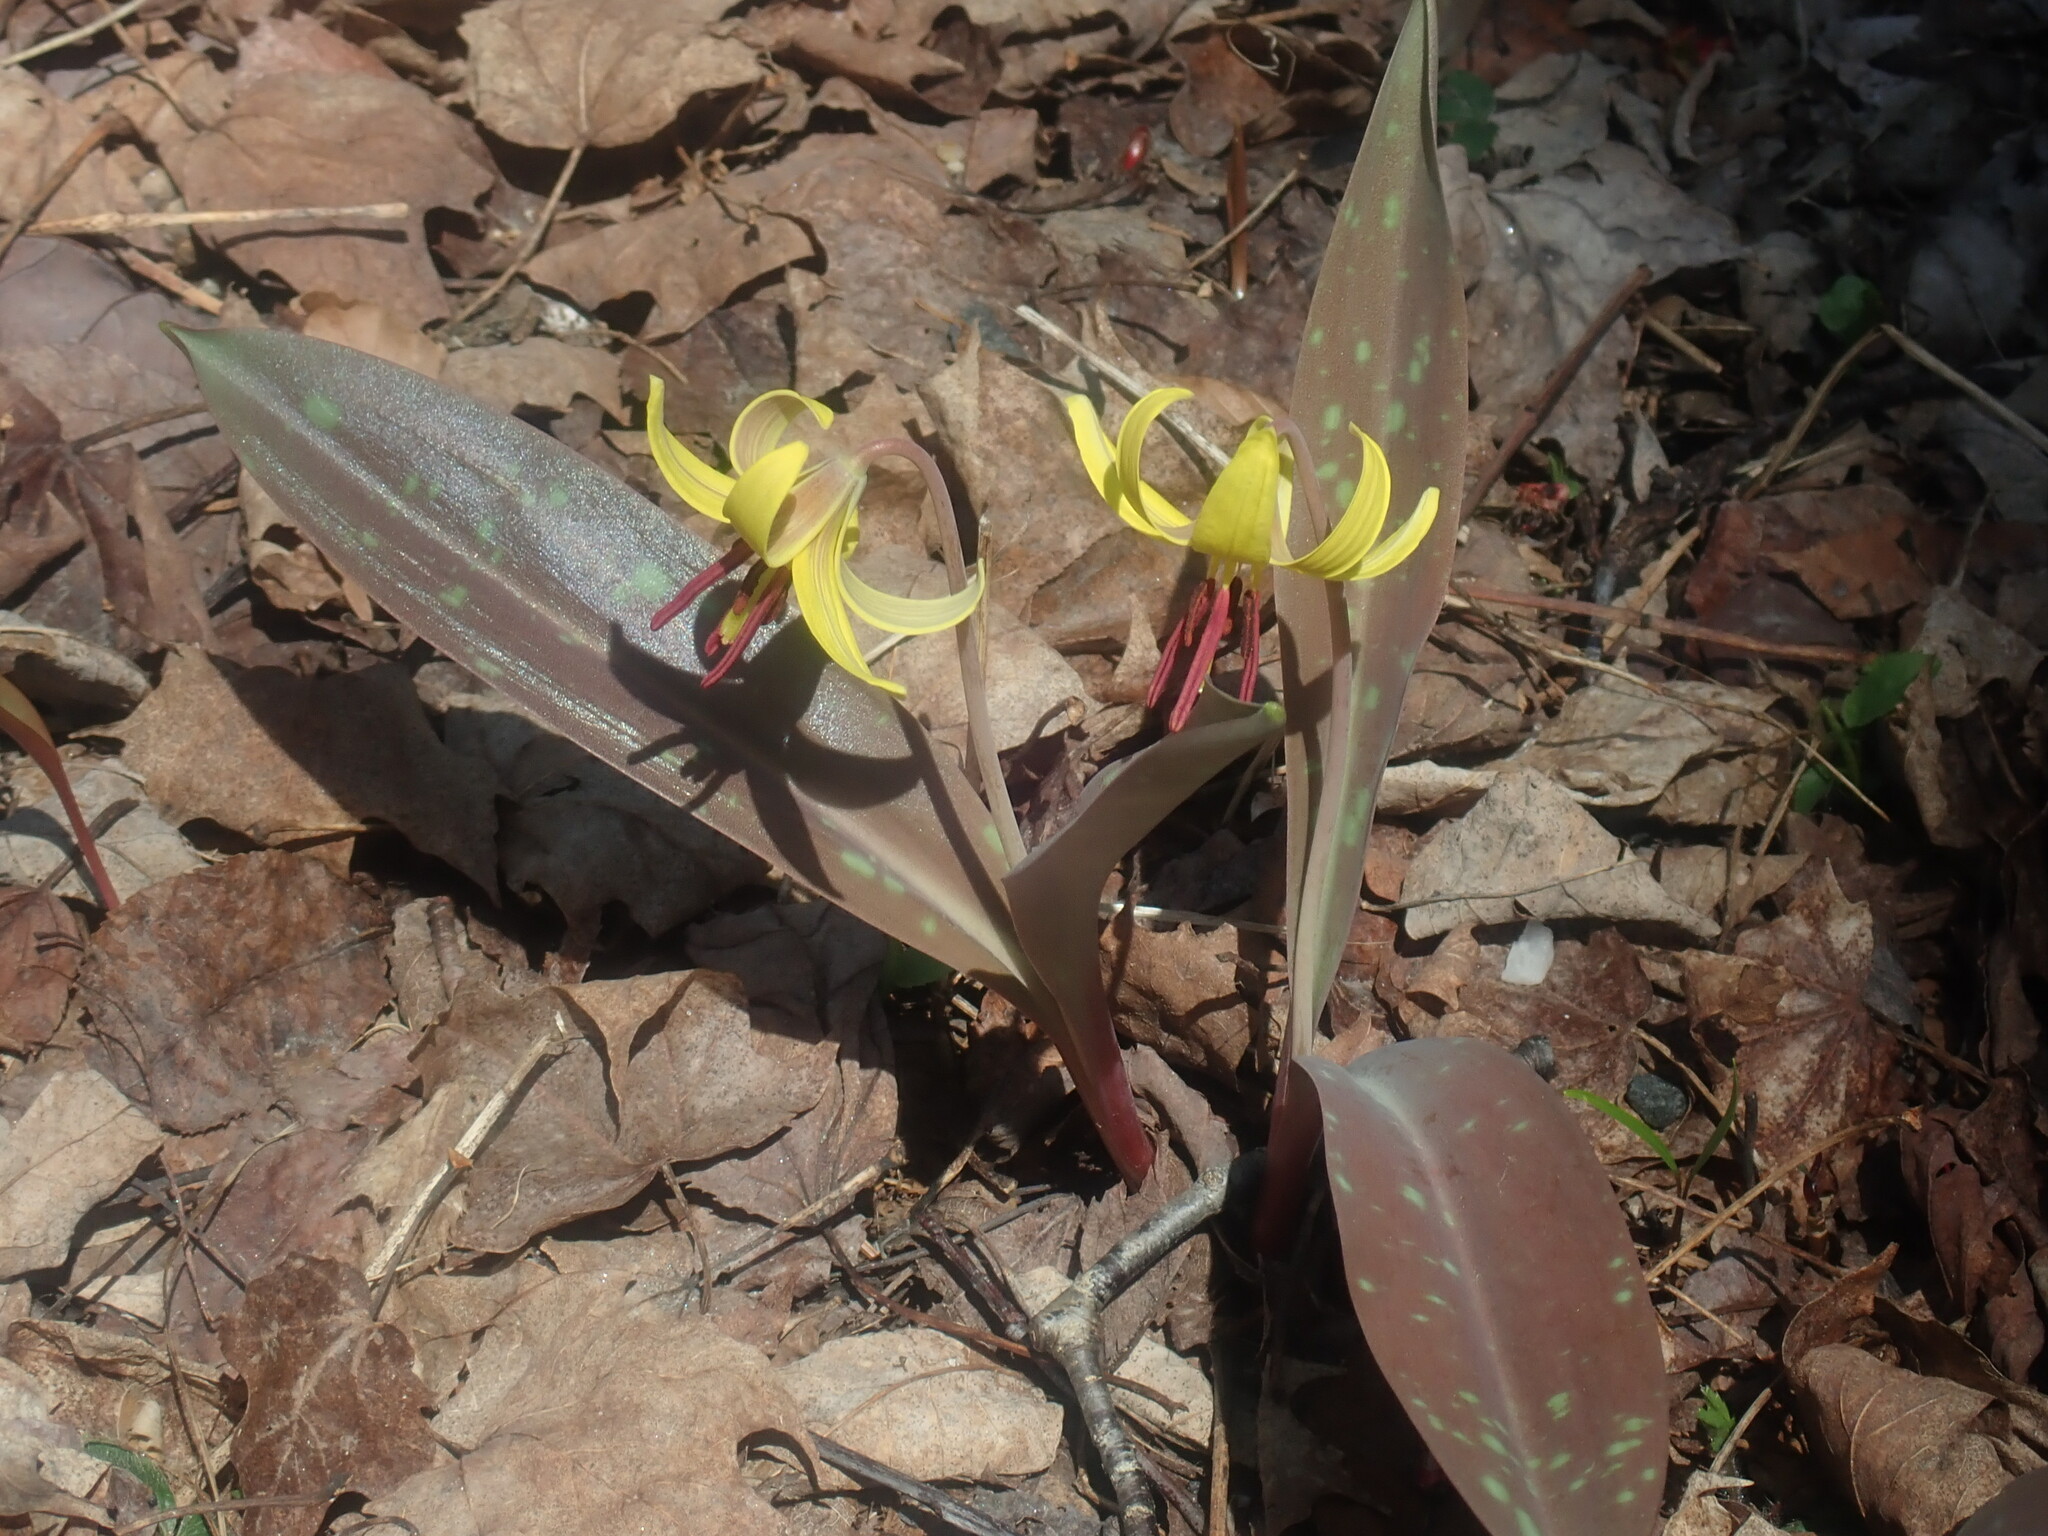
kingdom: Plantae
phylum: Tracheophyta
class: Liliopsida
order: Liliales
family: Liliaceae
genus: Erythronium
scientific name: Erythronium americanum
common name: Yellow adder's-tongue
